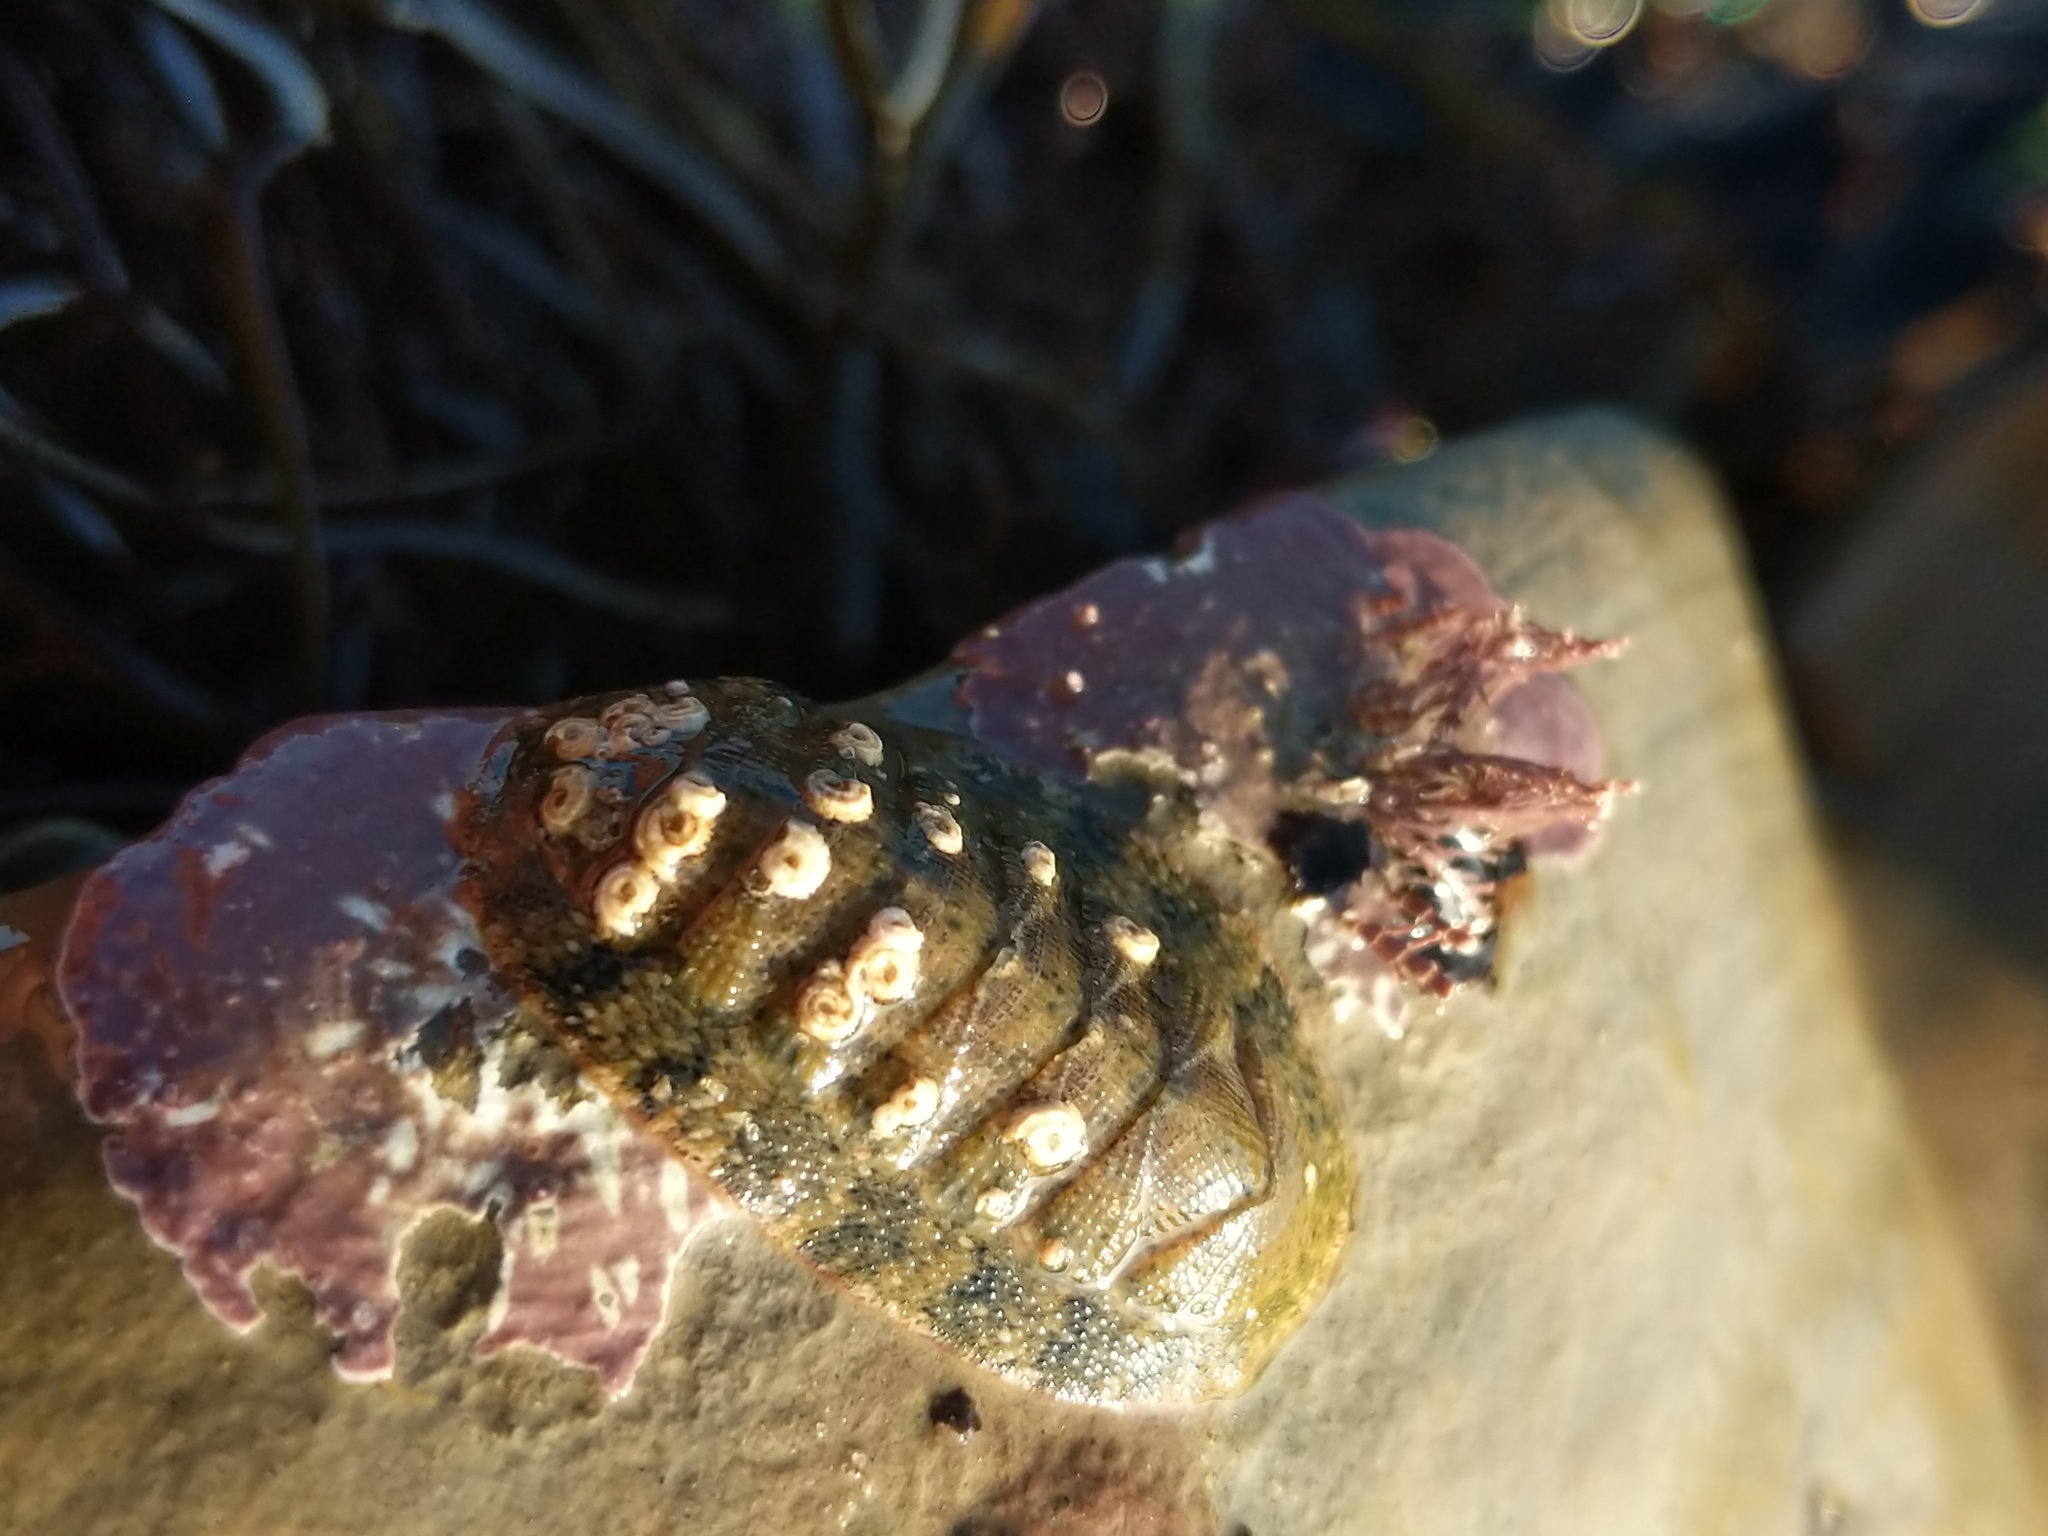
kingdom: Animalia
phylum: Mollusca
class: Polyplacophora
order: Chitonida
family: Ischnochitonidae
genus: Lepidozona
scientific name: Lepidozona pectinulata
